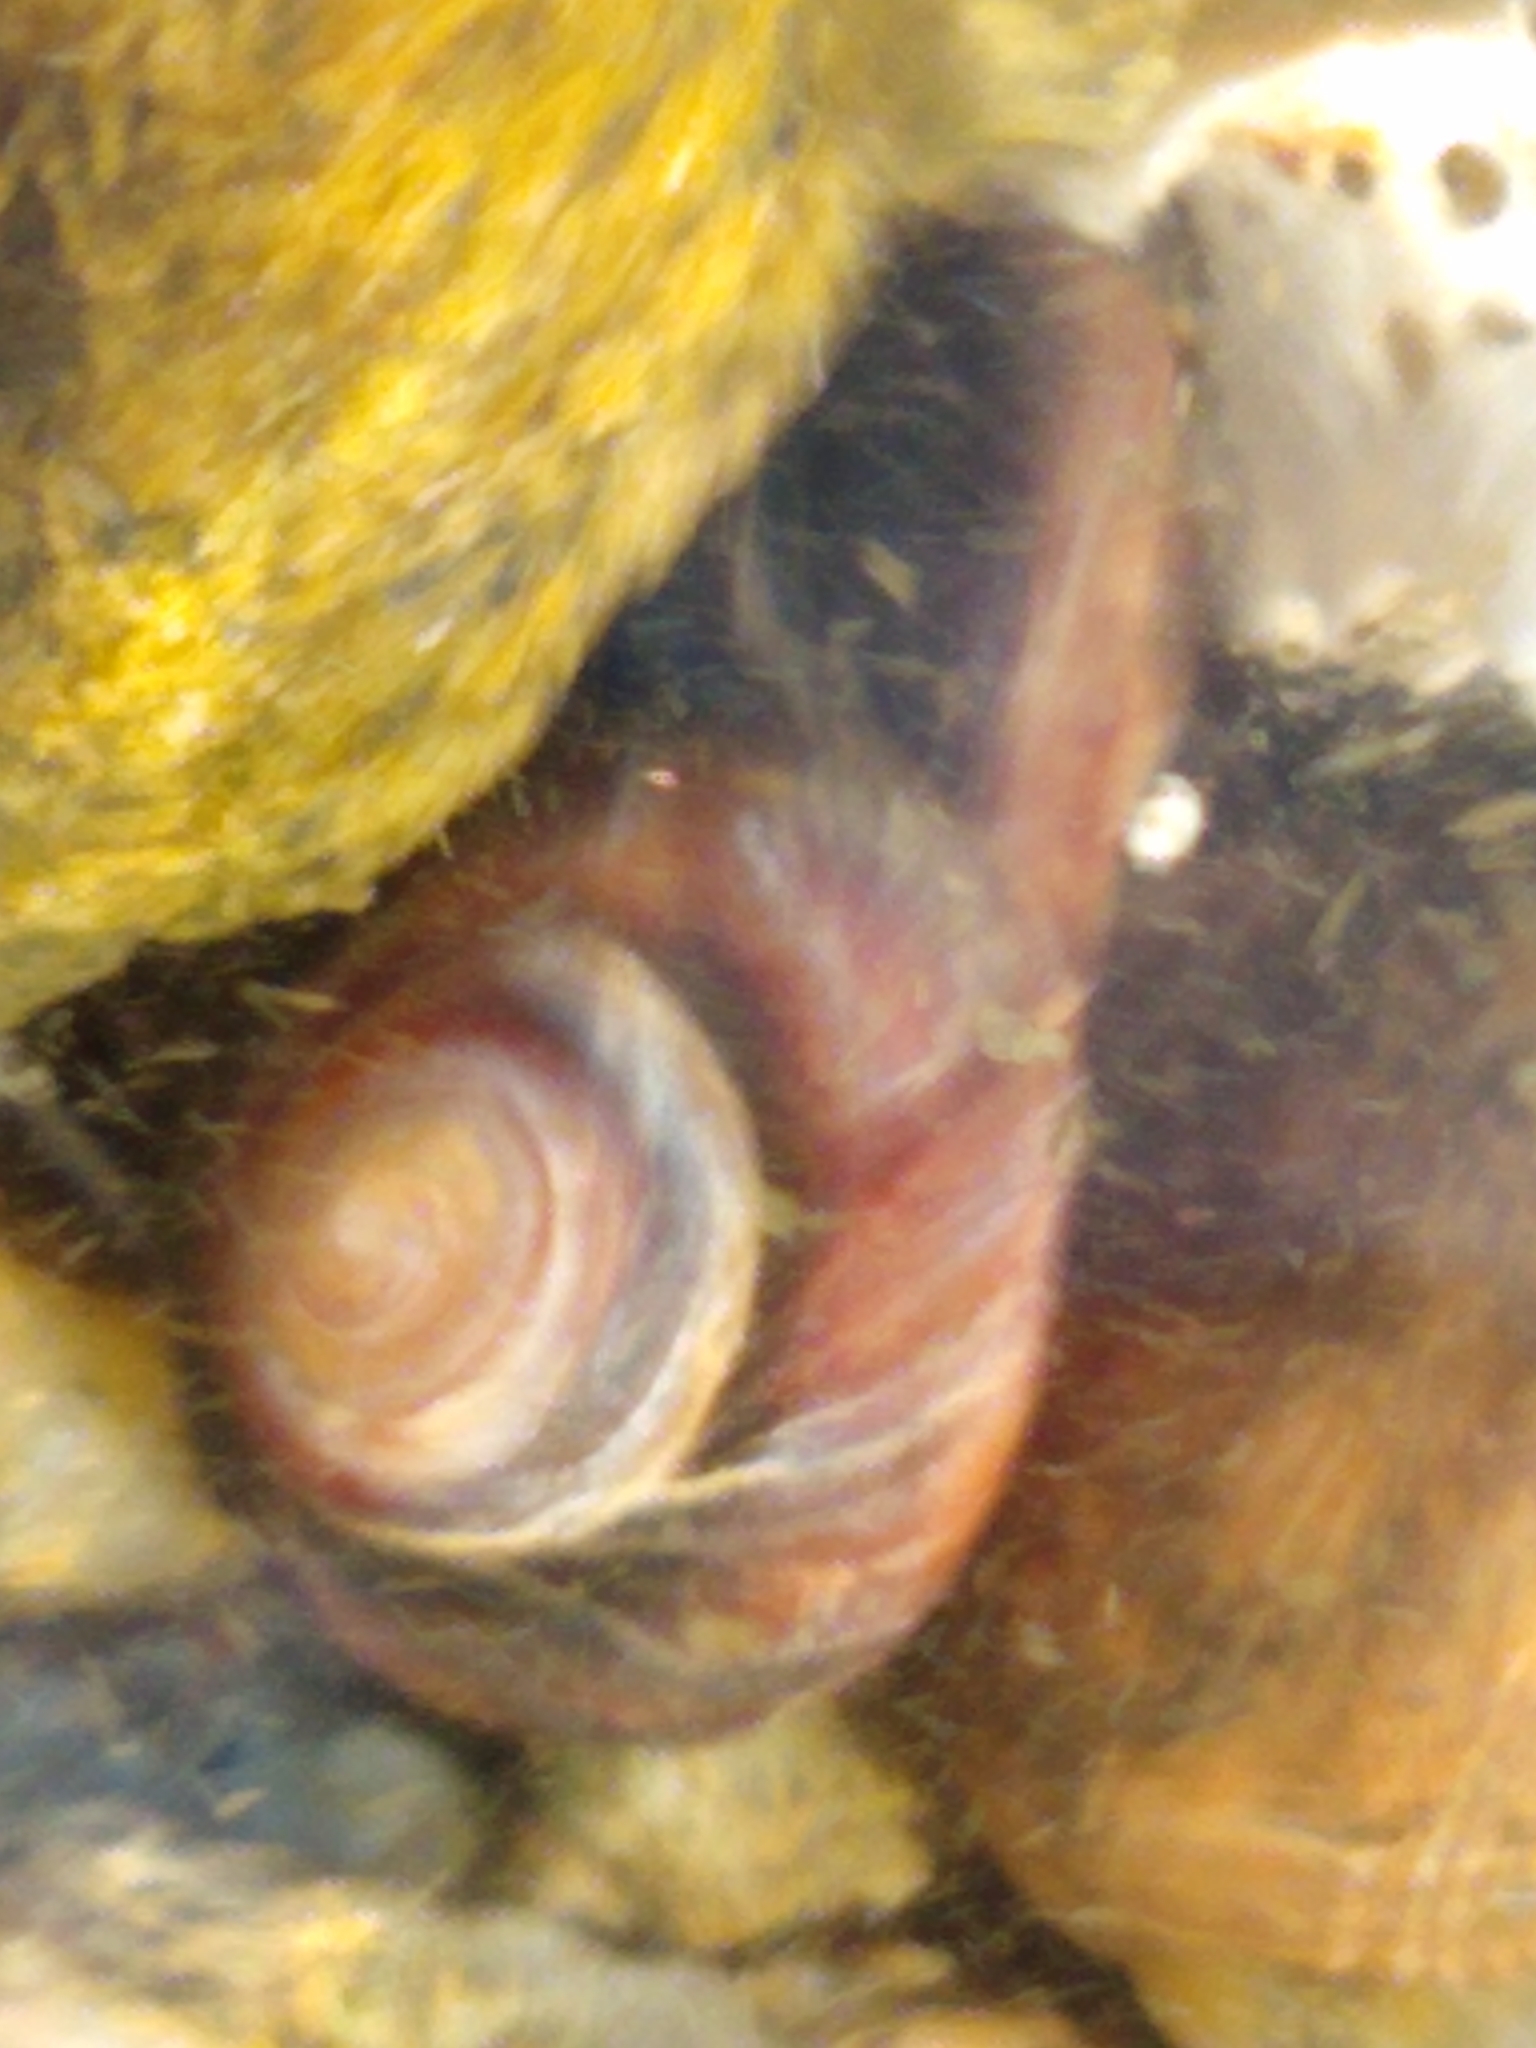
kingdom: Animalia
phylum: Mollusca
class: Gastropoda
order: Littorinimorpha
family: Littorinidae
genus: Littorina
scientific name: Littorina littorea
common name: Common periwinkle
